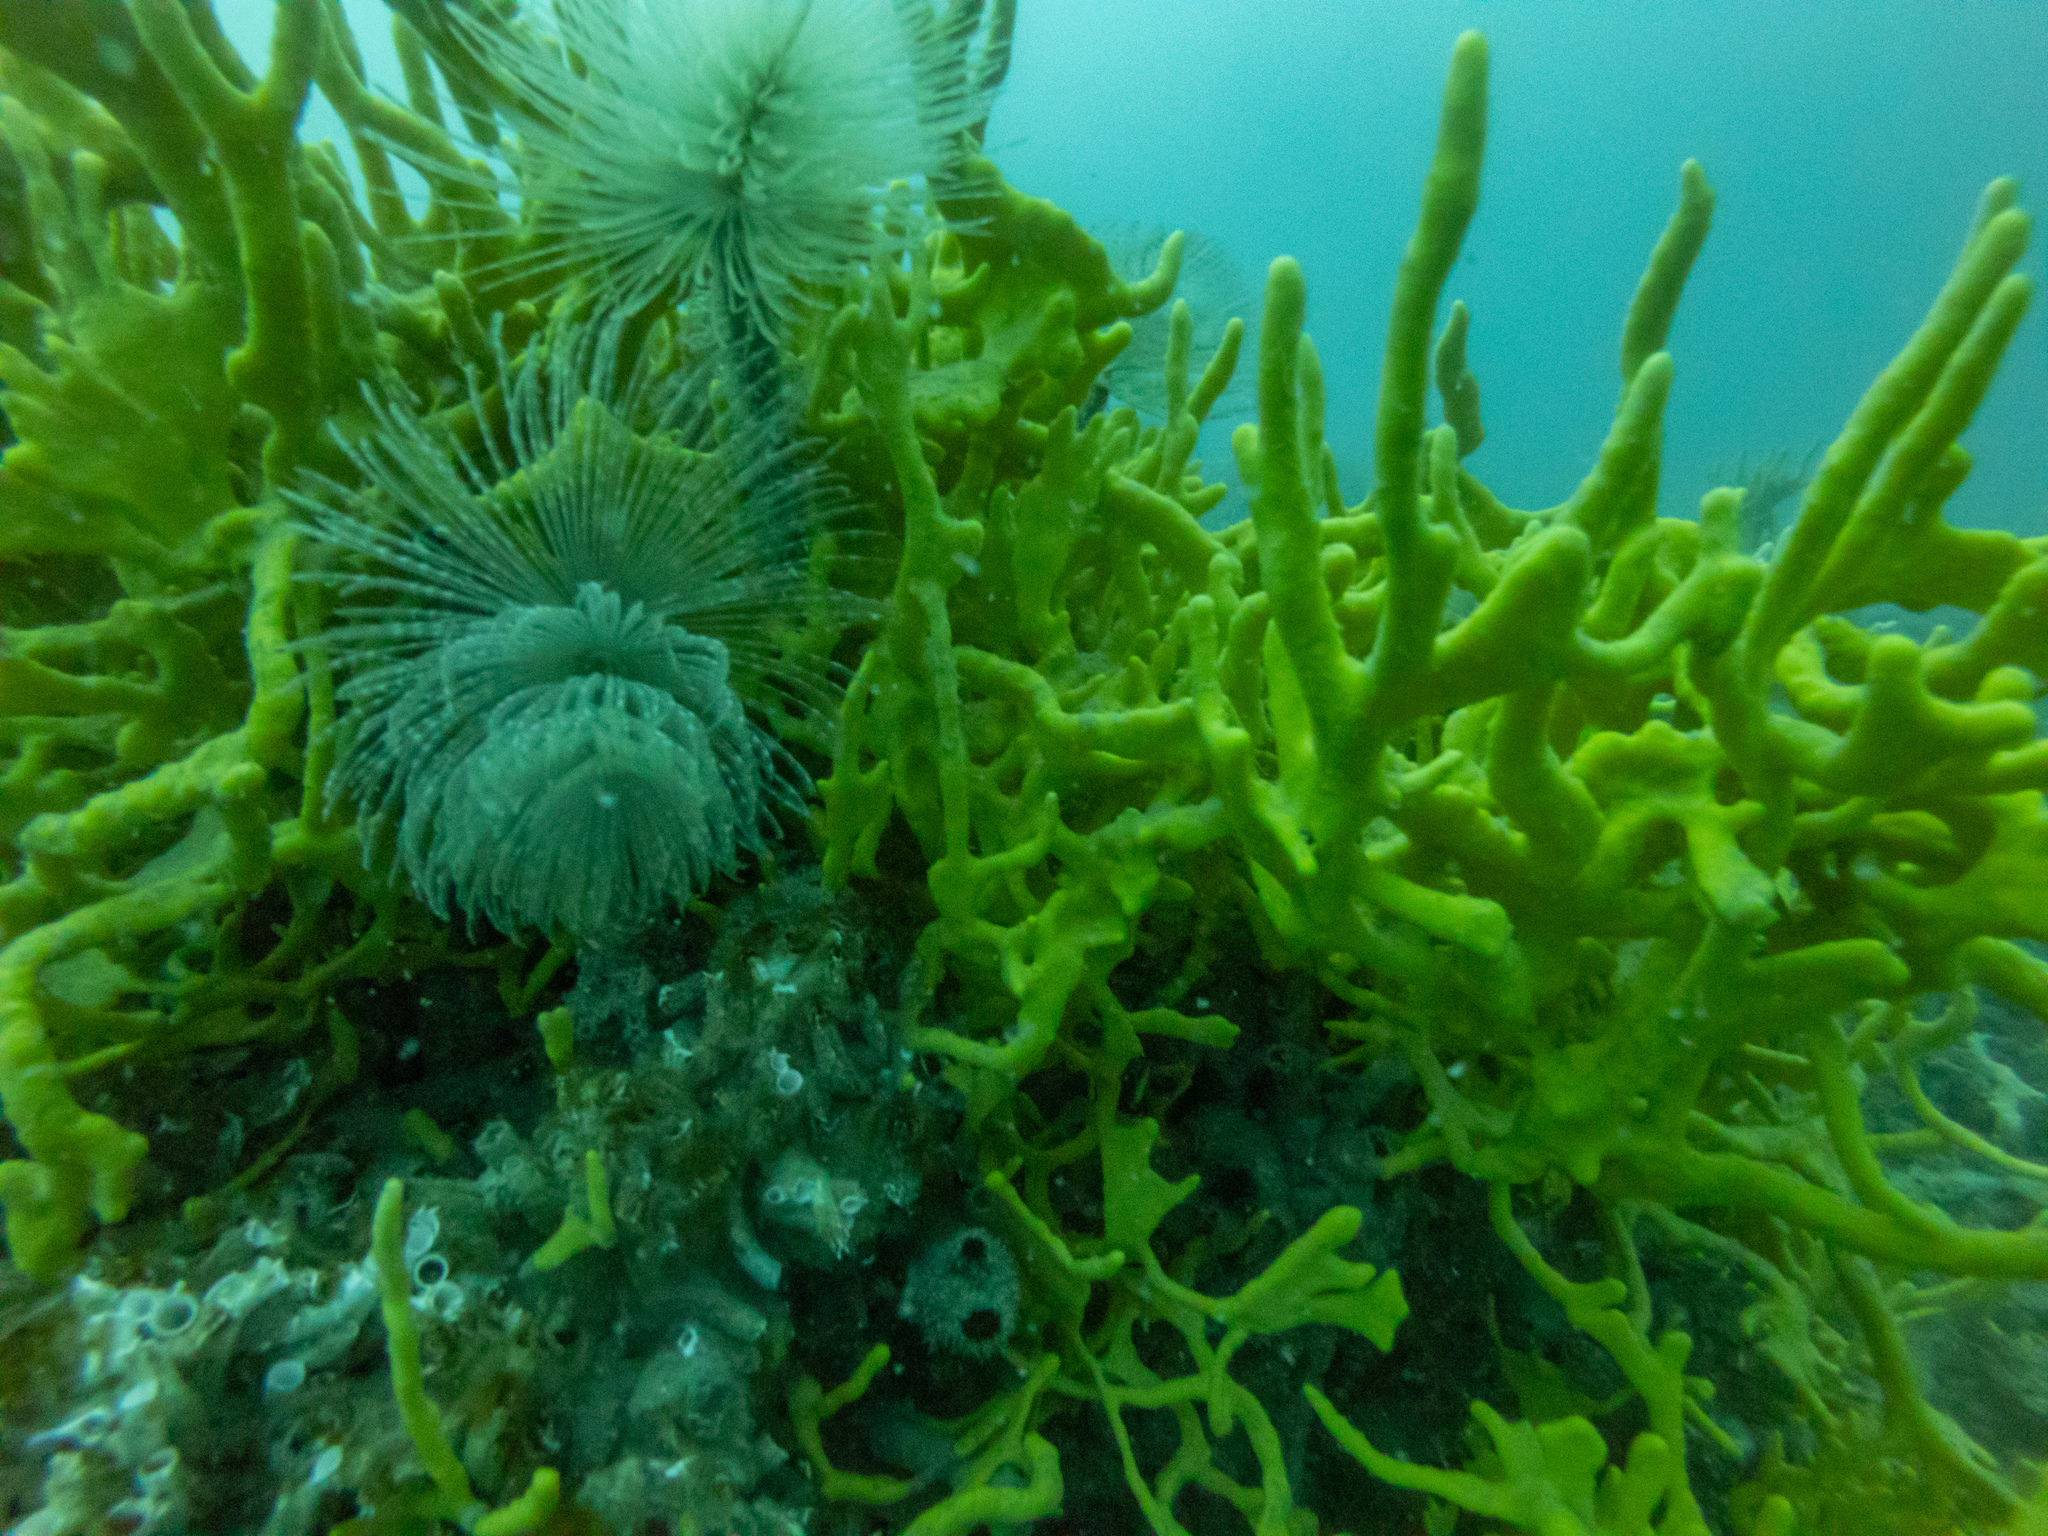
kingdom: Animalia
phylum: Annelida
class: Polychaeta
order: Sabellida
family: Sabellidae
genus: Sabella
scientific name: Sabella spallanzanii
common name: Feather duster worm
